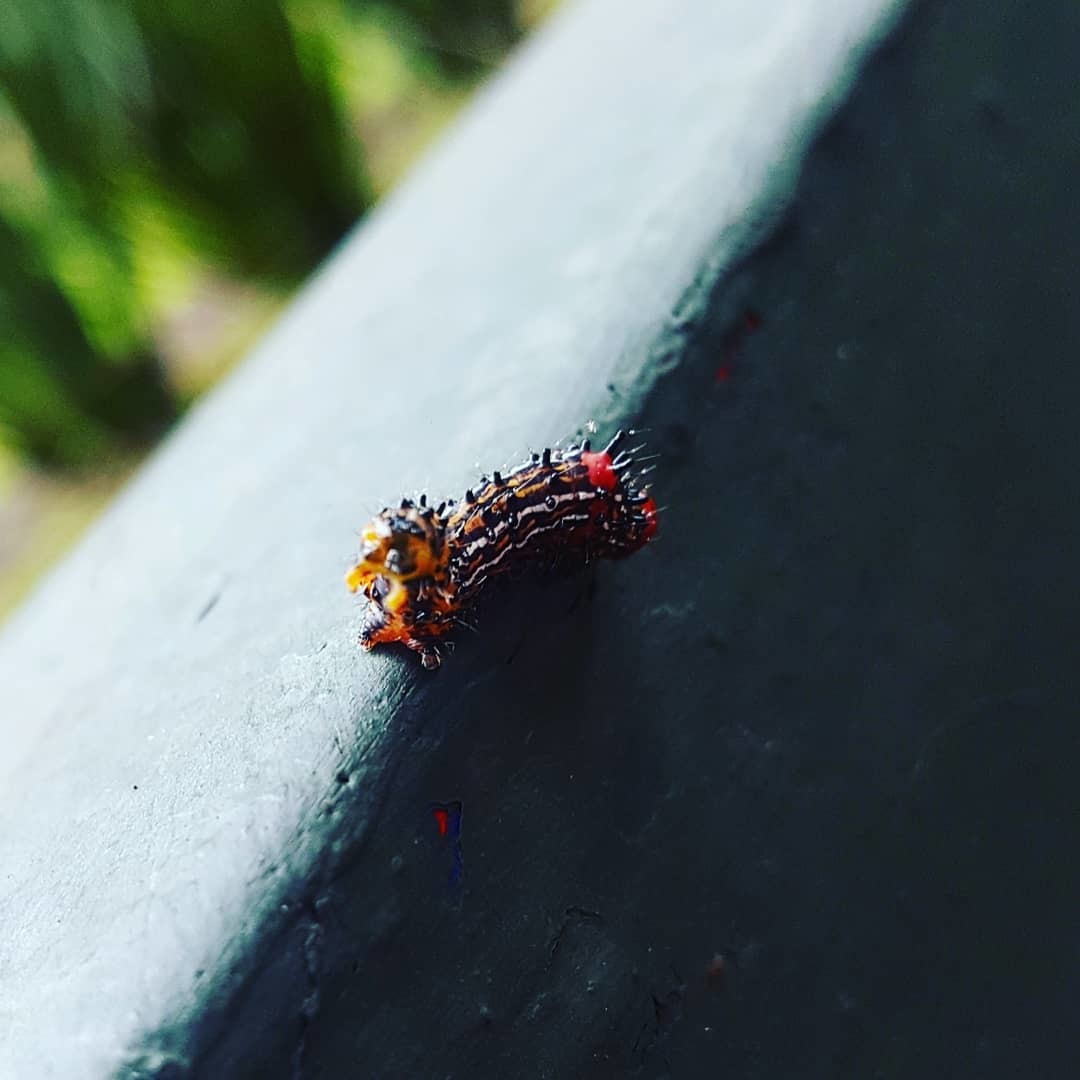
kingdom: Animalia
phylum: Arthropoda
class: Insecta
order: Lepidoptera
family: Notodontidae
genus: Schizura
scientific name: Schizura
